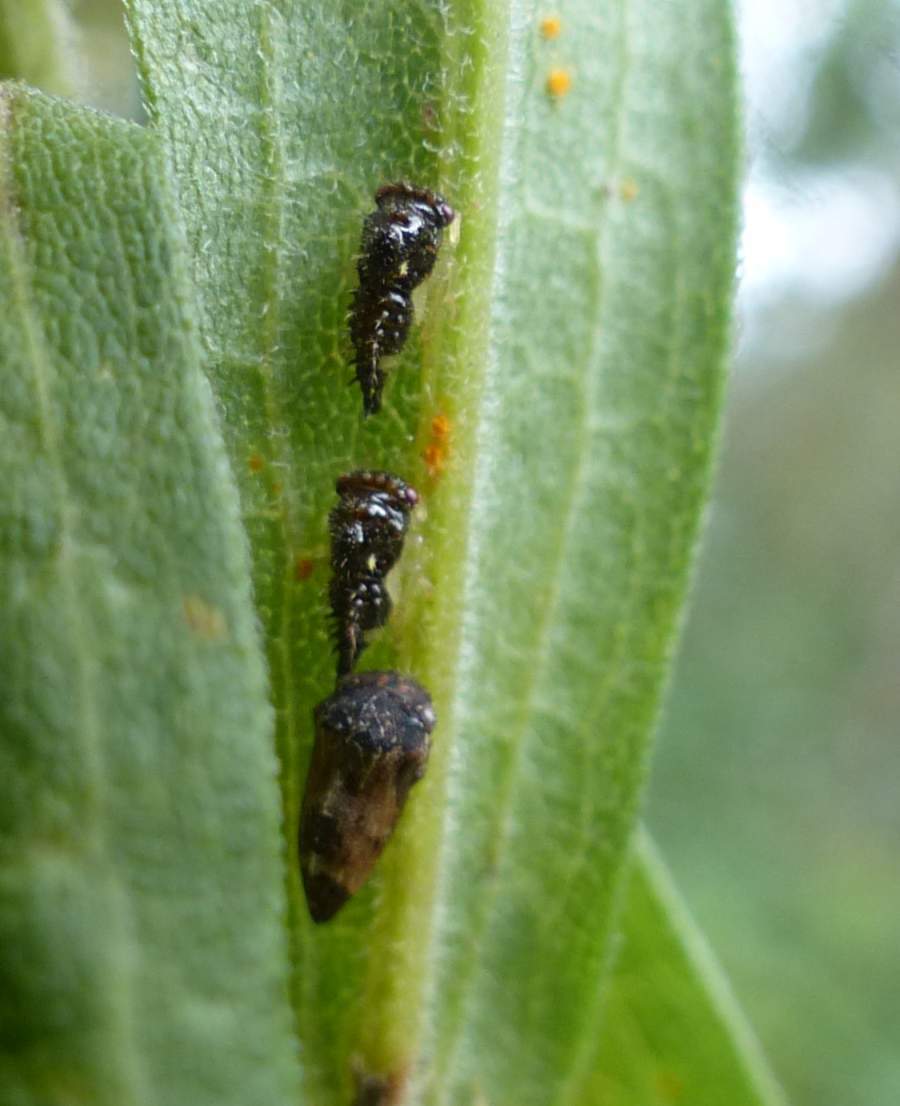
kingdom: Animalia
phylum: Arthropoda
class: Insecta
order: Hemiptera
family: Membracidae
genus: Publilia
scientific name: Publilia concava
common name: Aster treehopper
